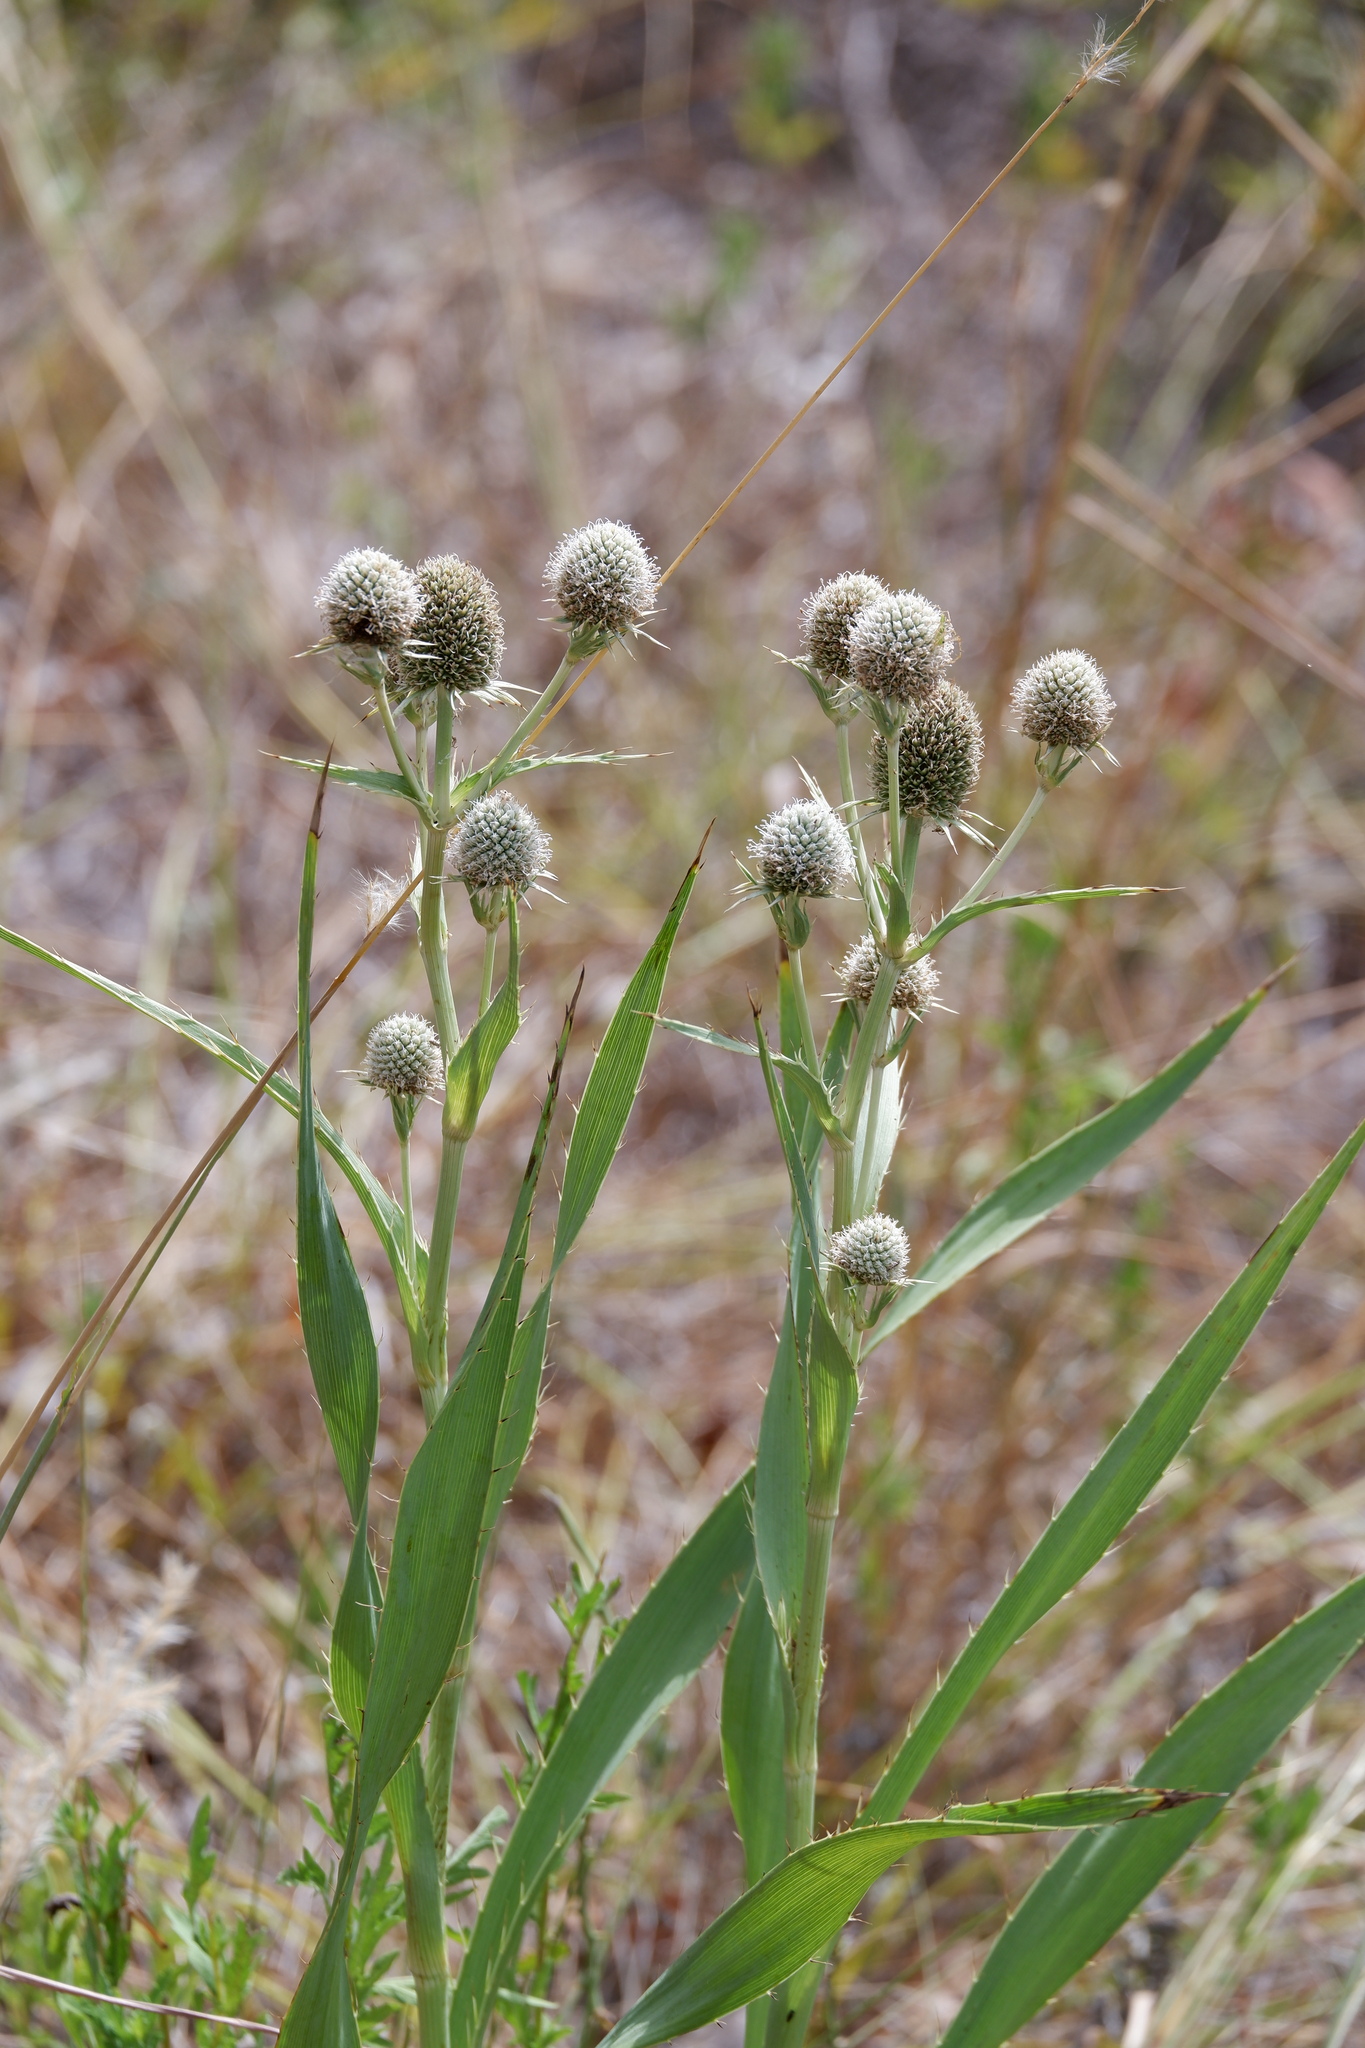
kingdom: Plantae
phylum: Tracheophyta
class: Magnoliopsida
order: Apiales
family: Apiaceae
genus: Eryngium
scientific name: Eryngium yuccifolium
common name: Button eryngo
